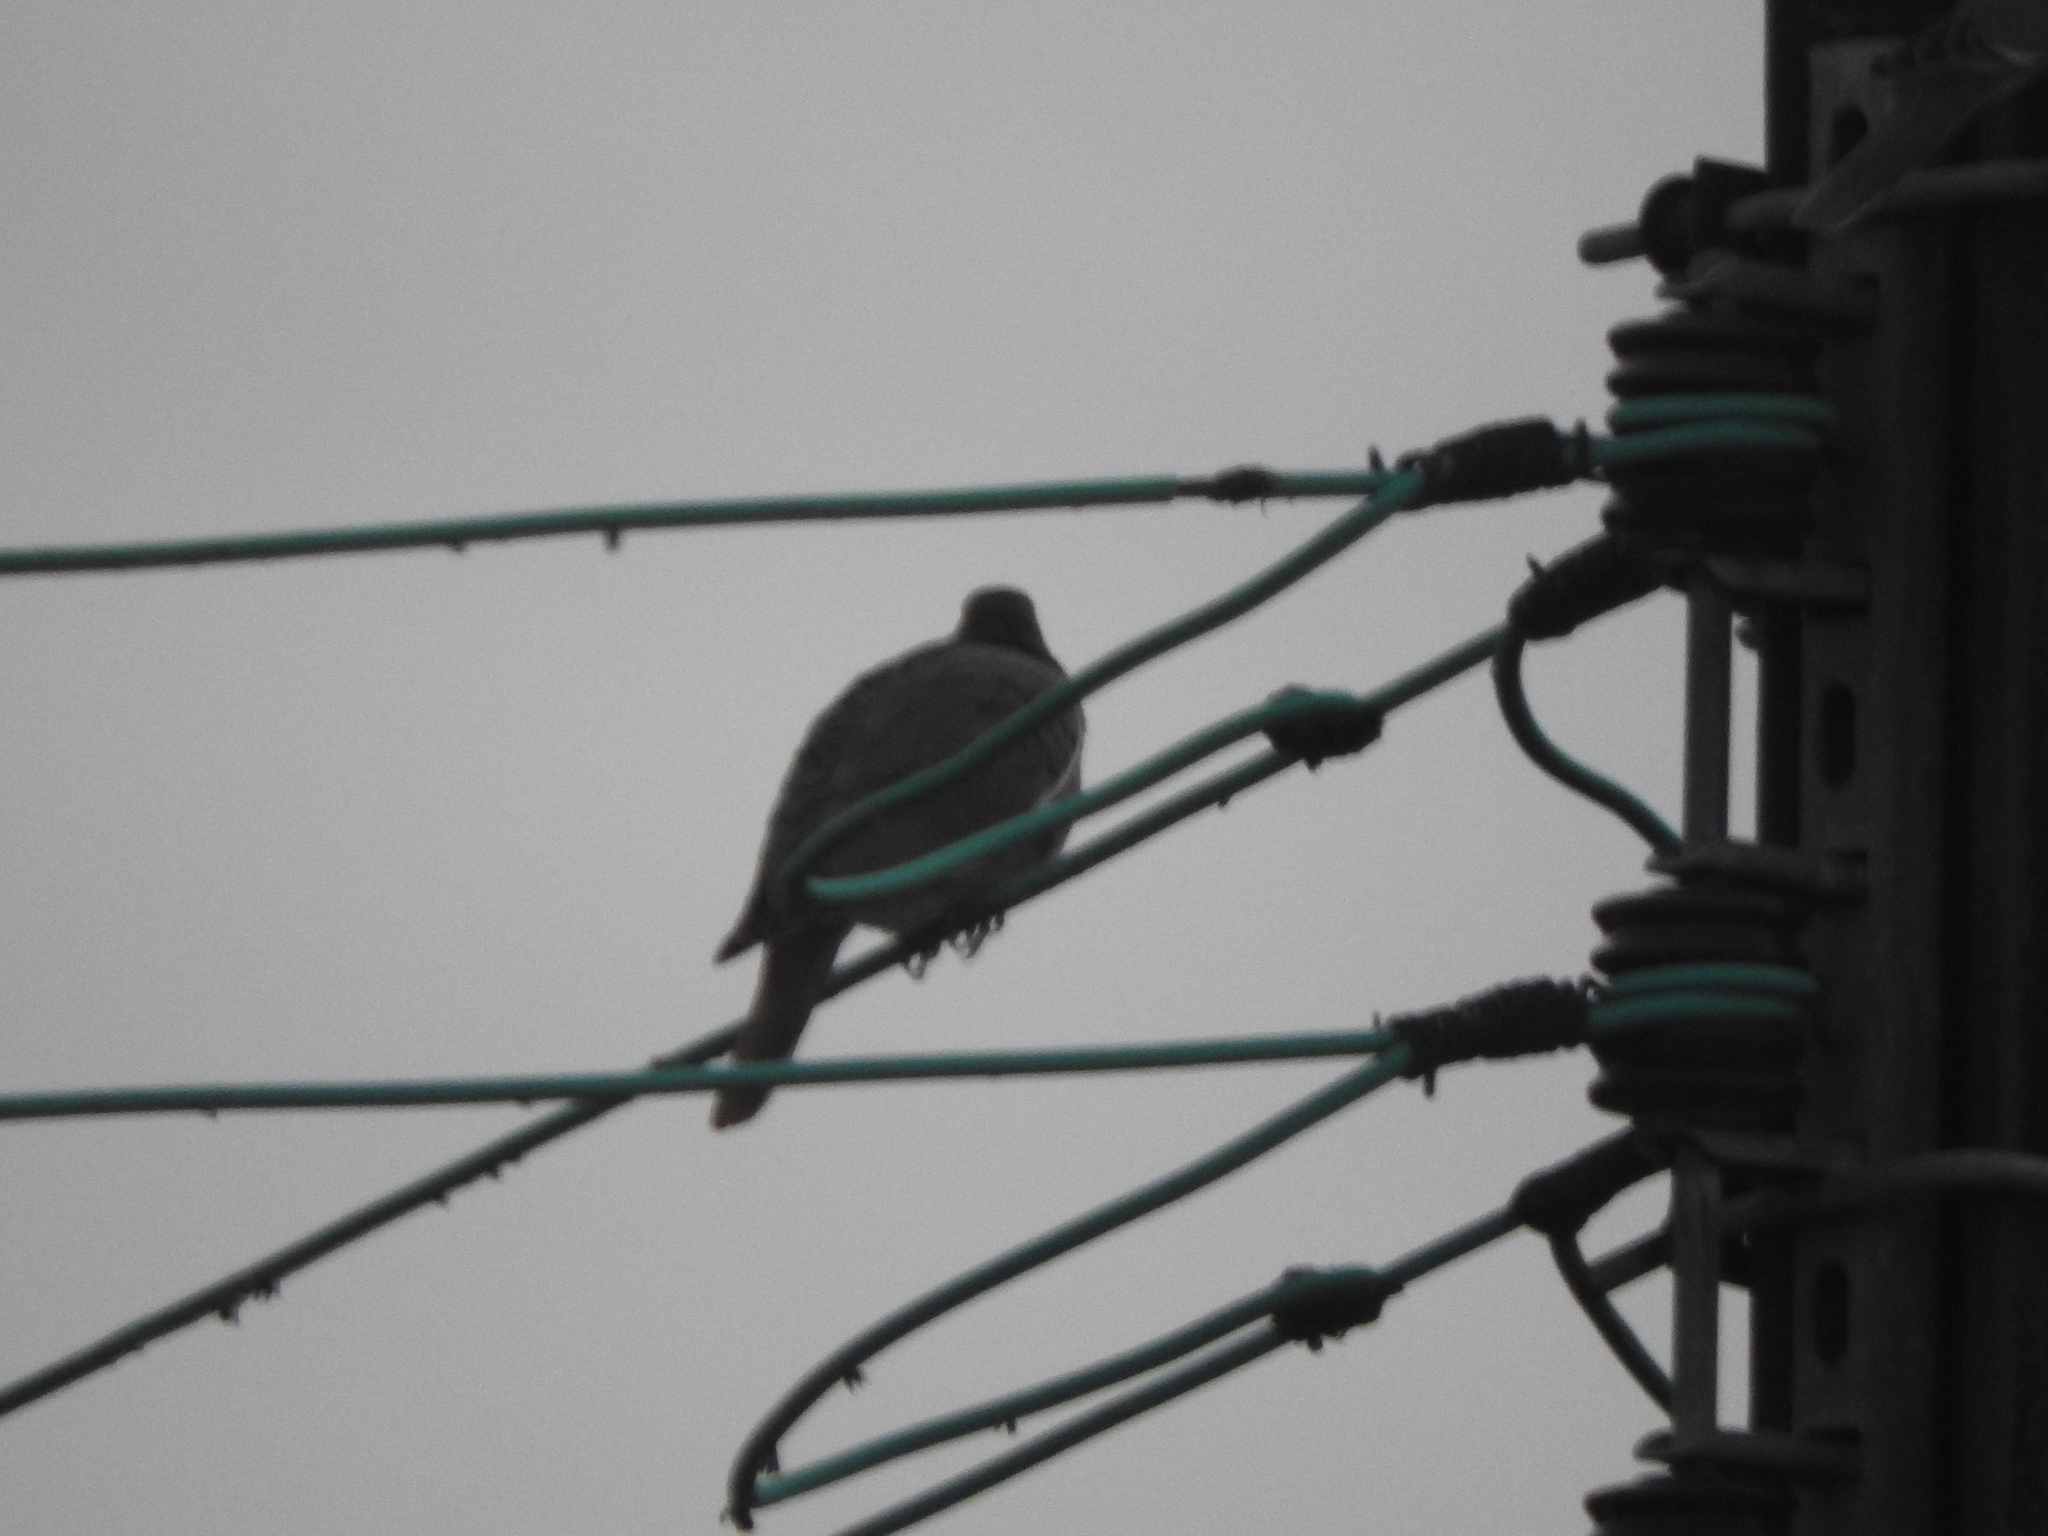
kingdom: Animalia
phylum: Chordata
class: Aves
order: Columbiformes
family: Columbidae
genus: Zenaida
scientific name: Zenaida asiatica
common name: White-winged dove
